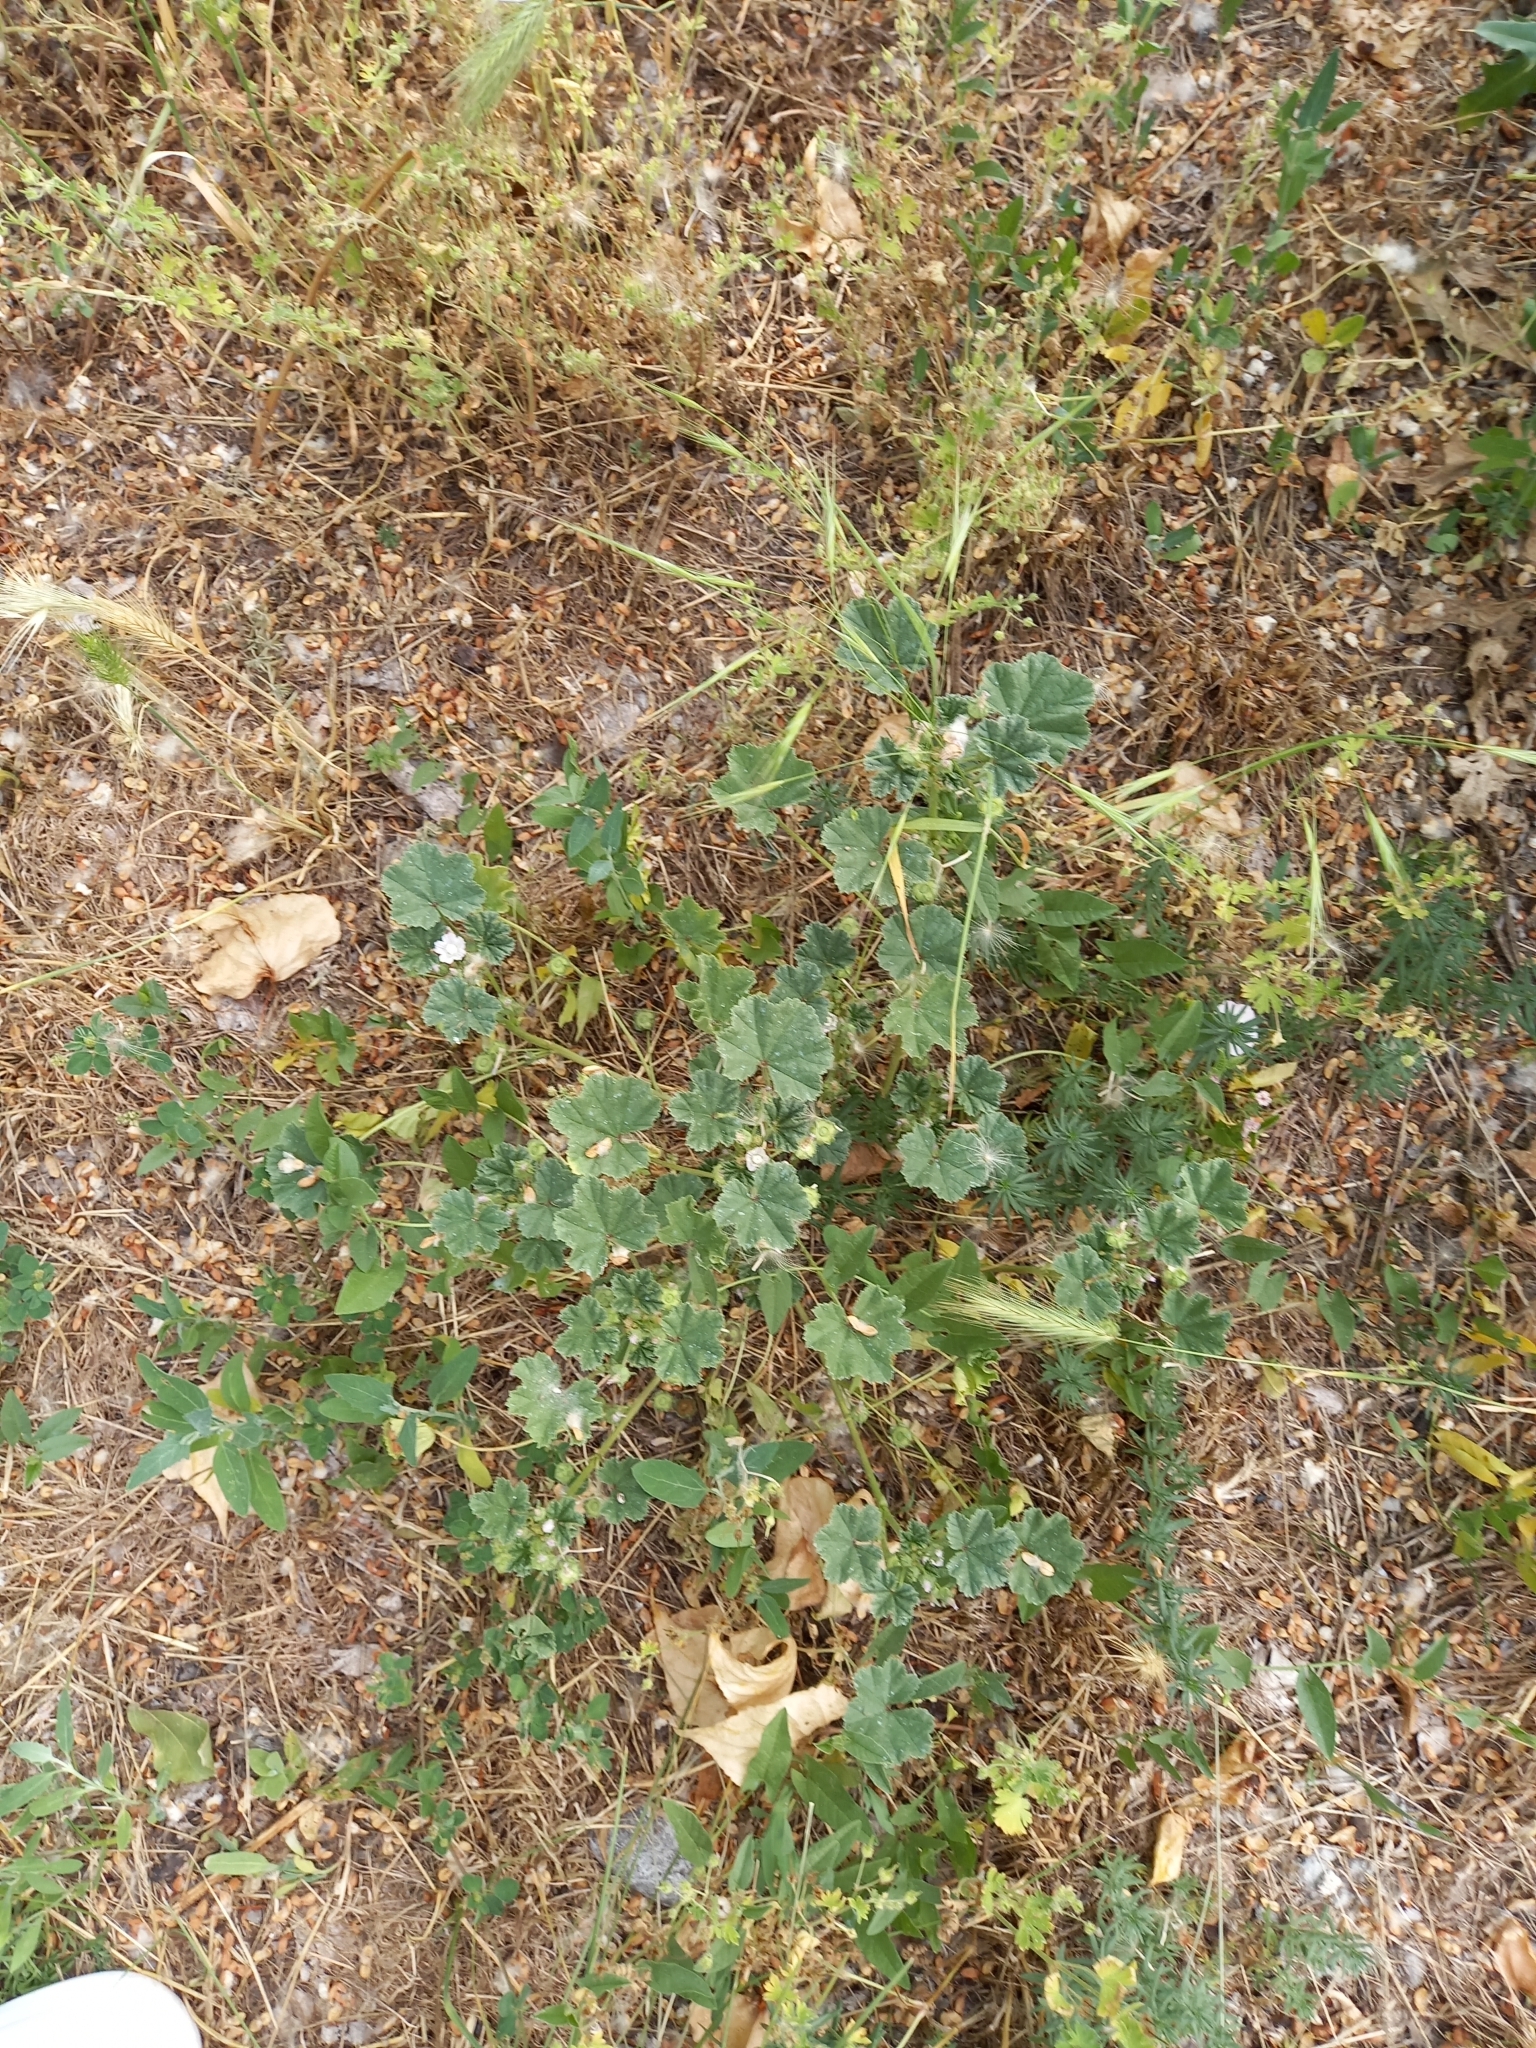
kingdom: Plantae
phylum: Tracheophyta
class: Magnoliopsida
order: Malvales
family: Malvaceae
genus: Malva
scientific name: Malva neglecta
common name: Common mallow
